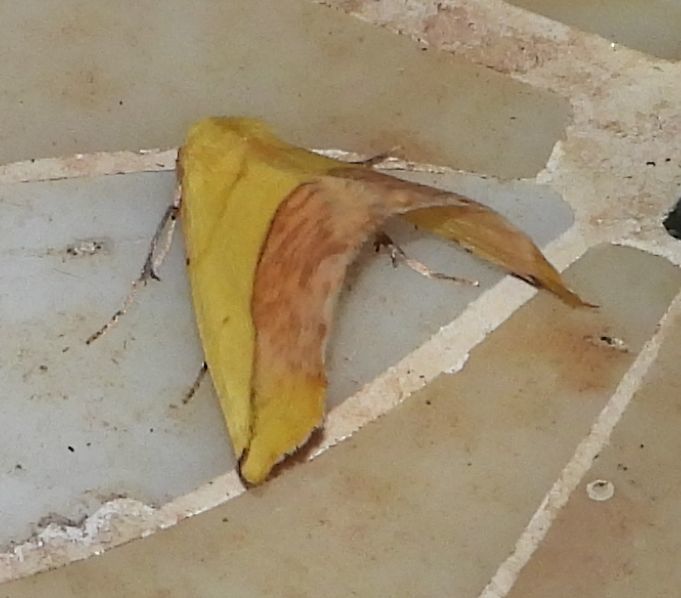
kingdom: Animalia
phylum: Arthropoda
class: Insecta
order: Lepidoptera
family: Geometridae
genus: Sicya
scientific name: Sicya macularia
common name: Sharp-lined yellow
